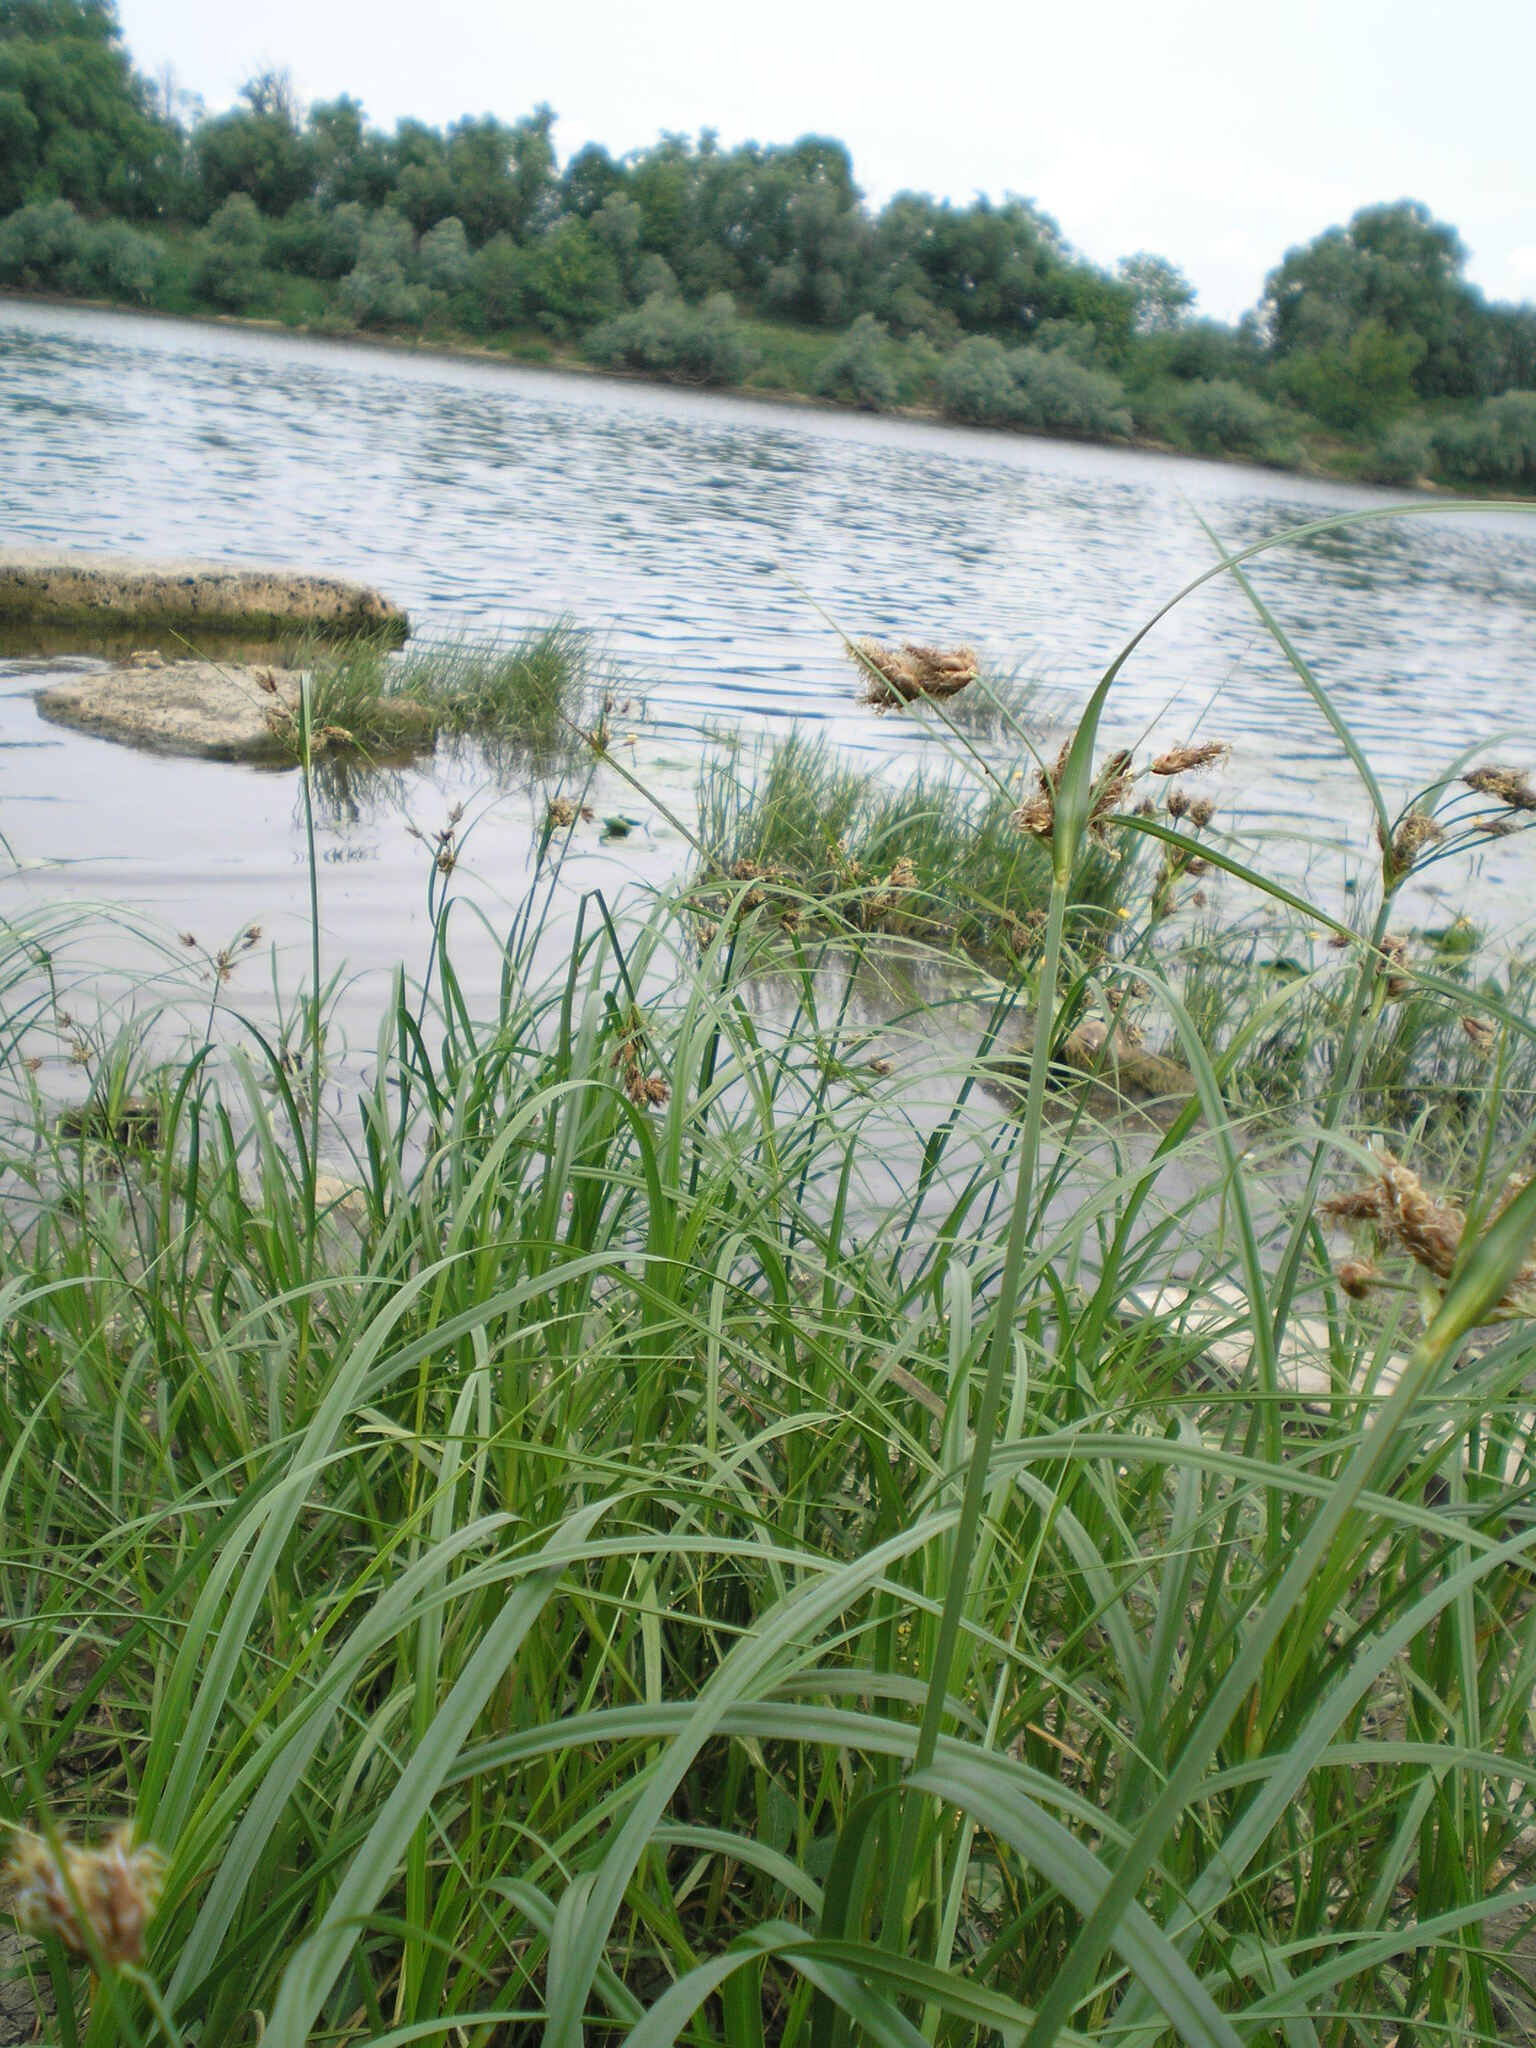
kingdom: Plantae
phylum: Tracheophyta
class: Liliopsida
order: Poales
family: Cyperaceae
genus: Bolboschoenus
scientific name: Bolboschoenus laticarpus
